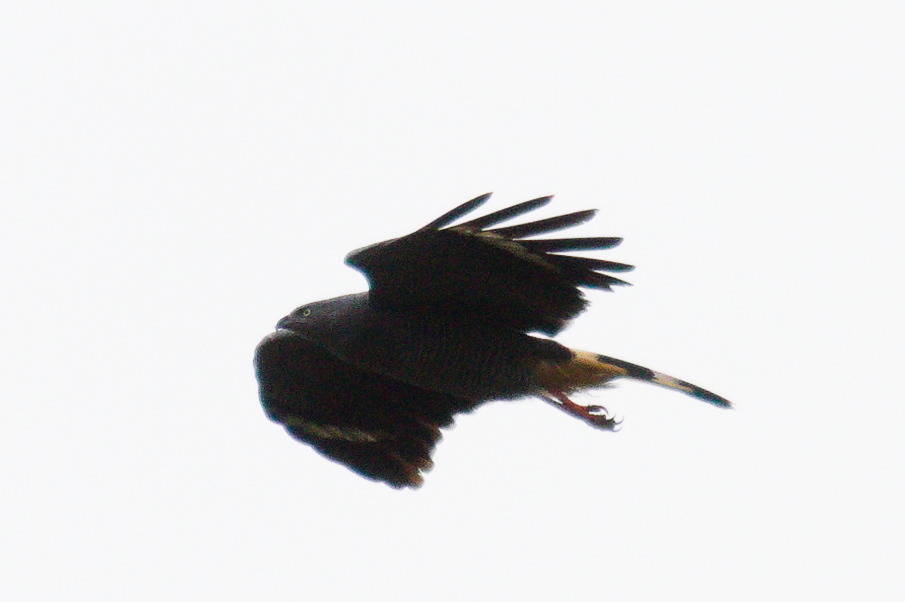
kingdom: Animalia
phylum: Chordata
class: Aves
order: Accipitriformes
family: Accipitridae
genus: Geranospiza
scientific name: Geranospiza caerulescens
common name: Crane hawk
